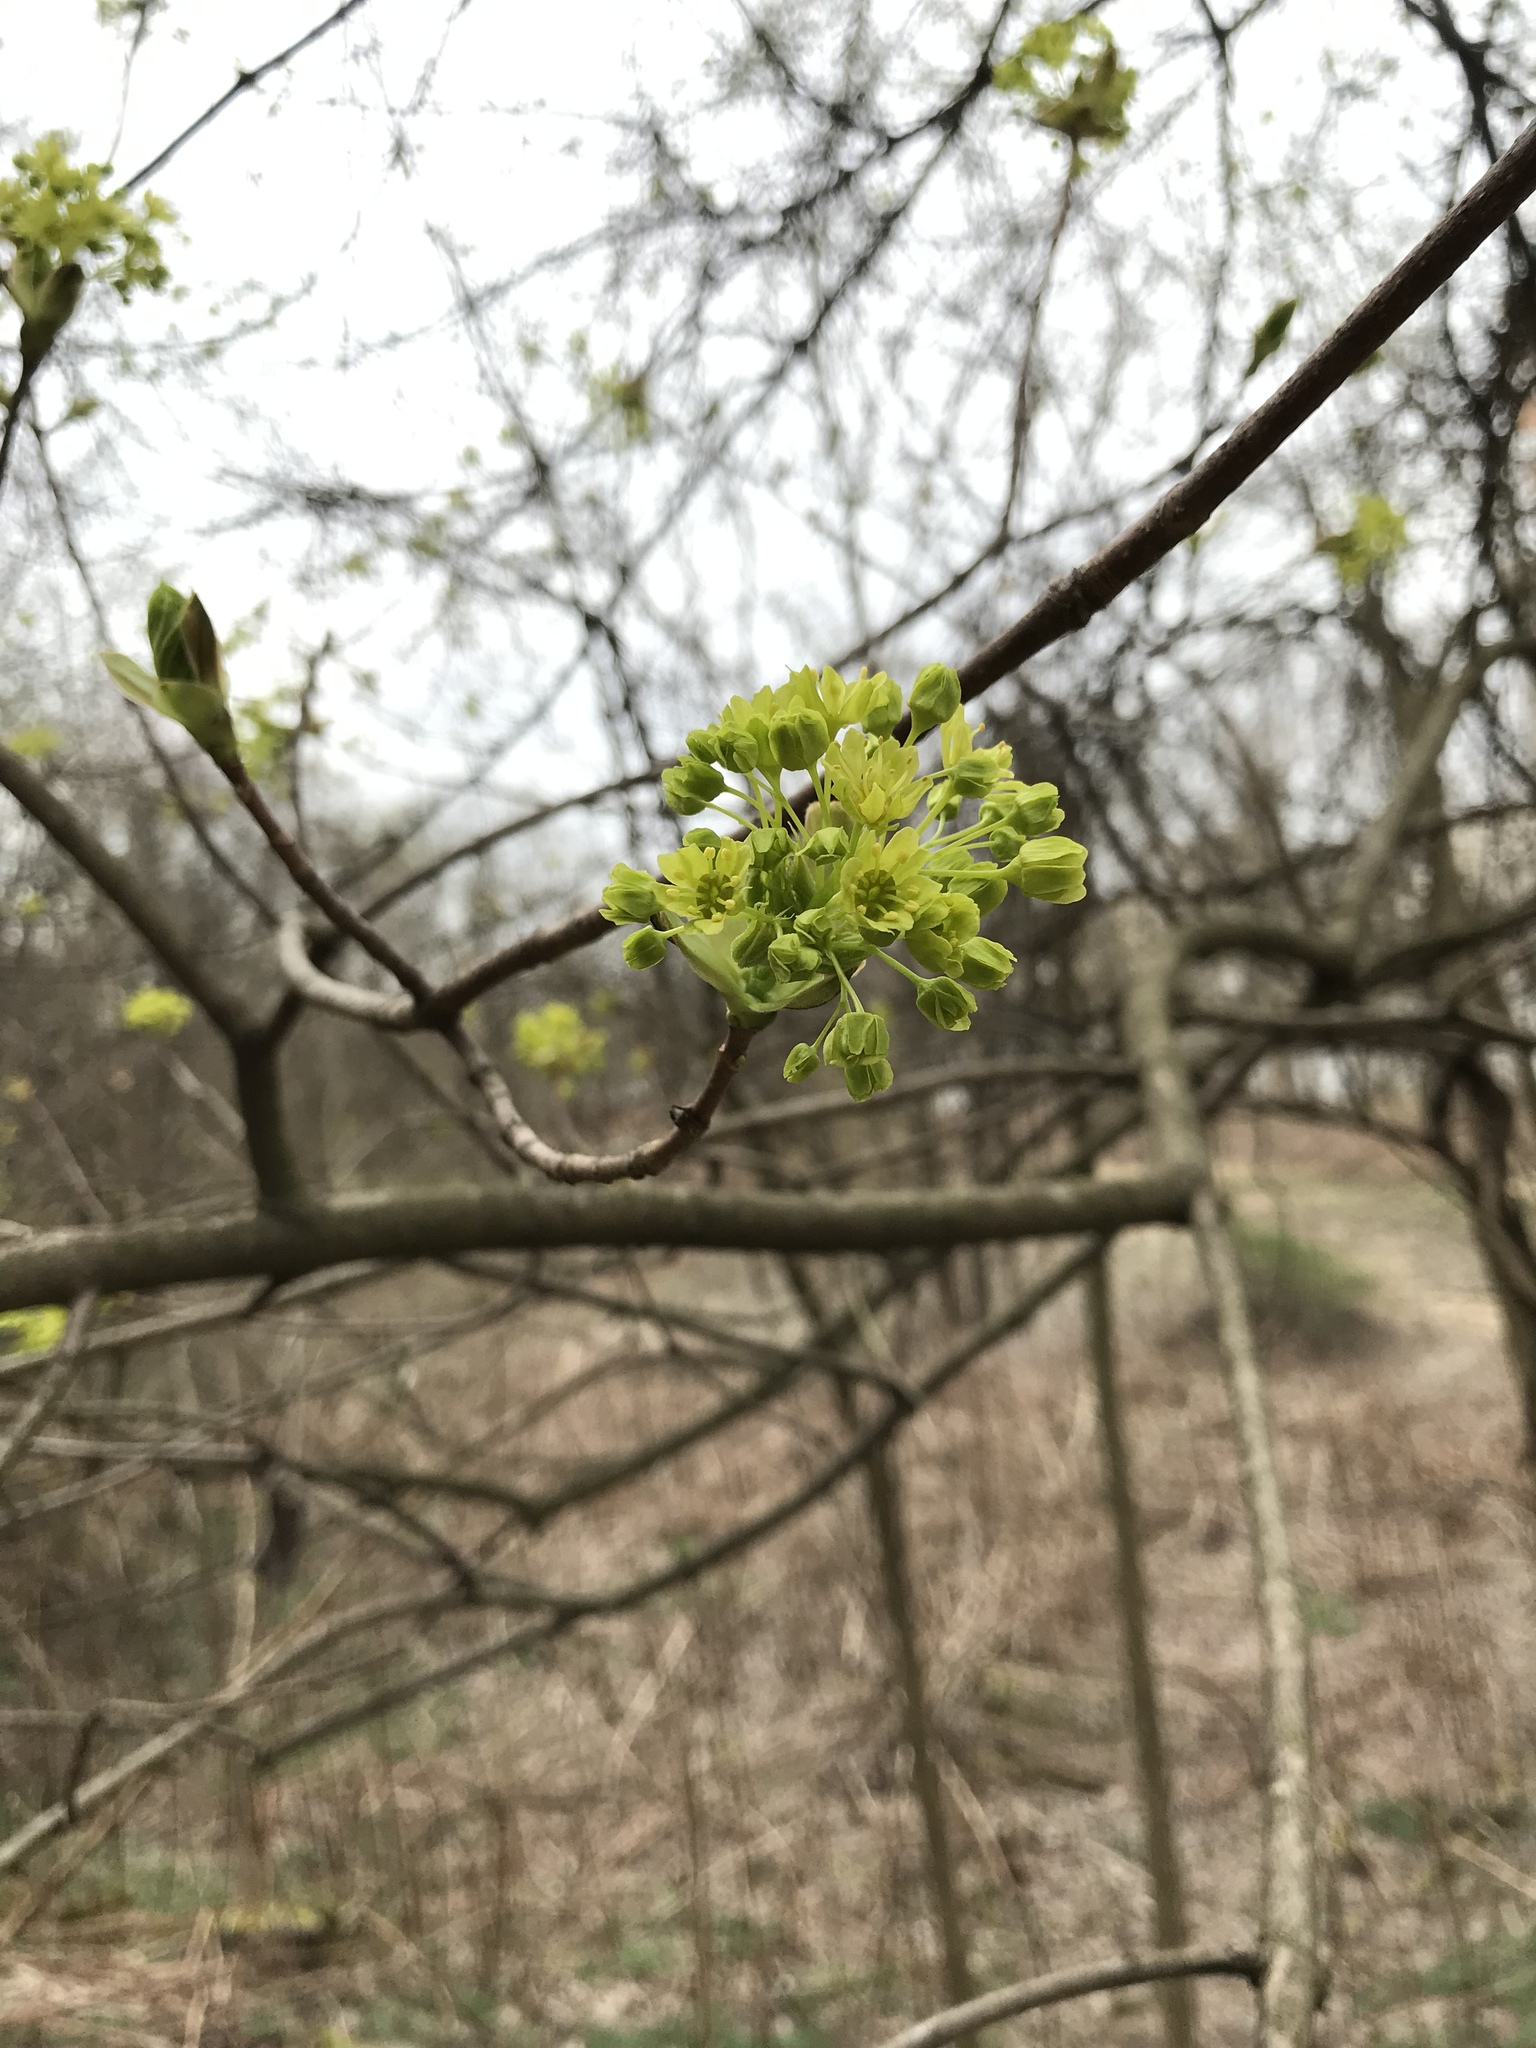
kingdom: Plantae
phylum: Tracheophyta
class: Magnoliopsida
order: Sapindales
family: Sapindaceae
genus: Acer
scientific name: Acer platanoides
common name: Norway maple
